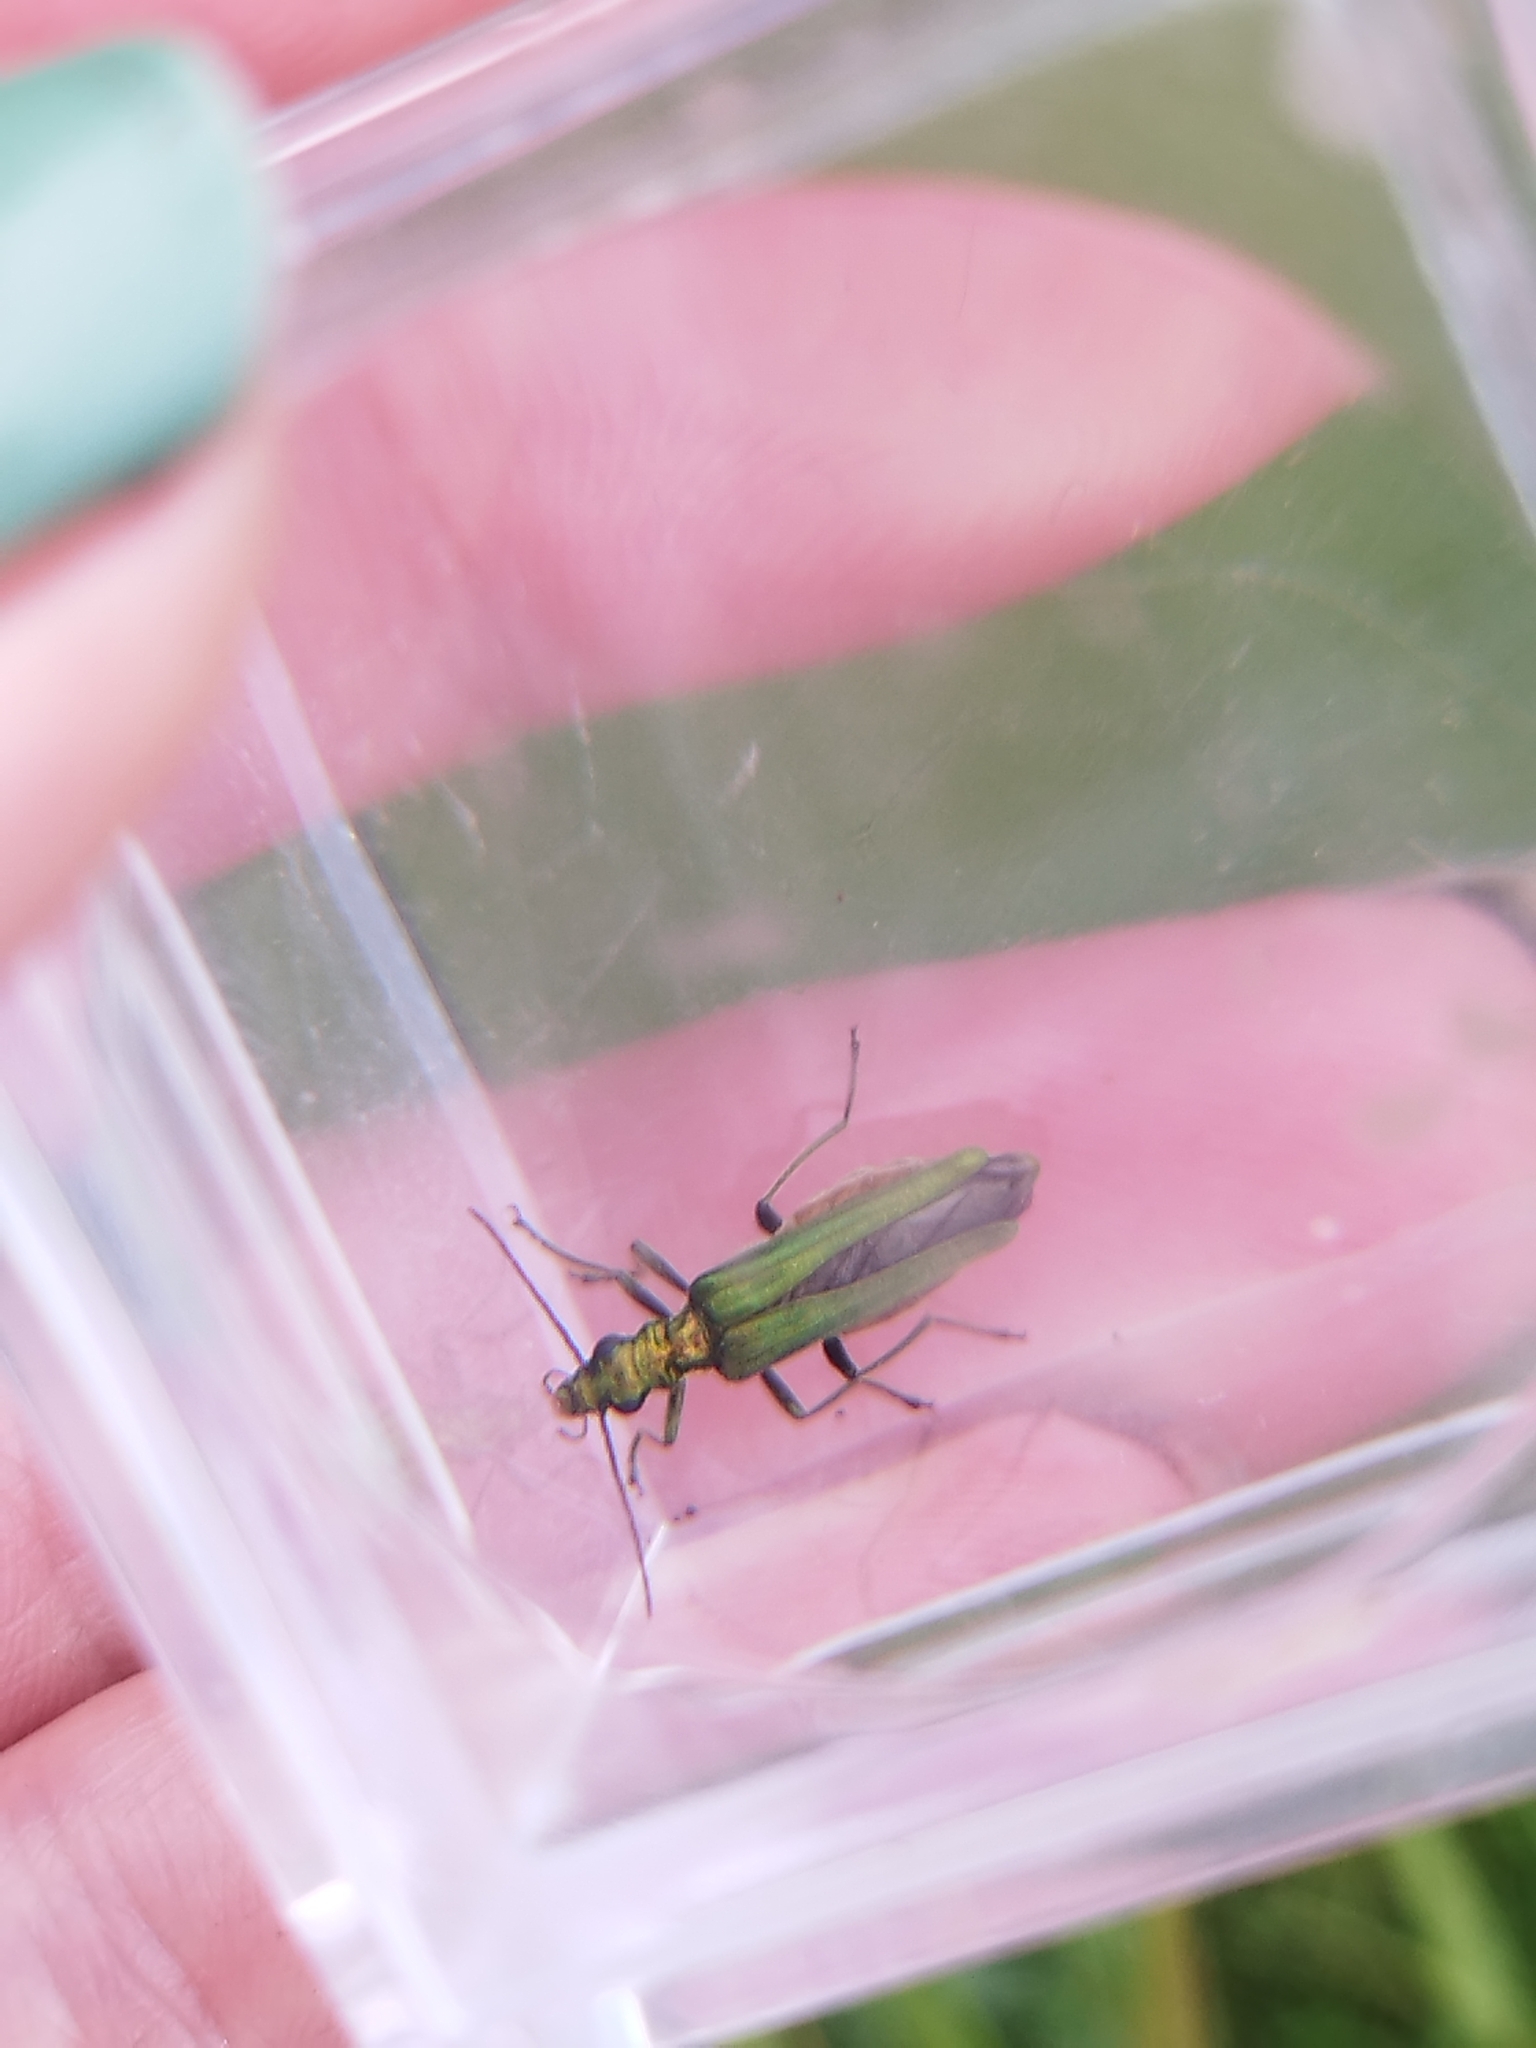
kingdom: Animalia
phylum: Arthropoda
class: Insecta
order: Coleoptera
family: Oedemeridae
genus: Oedemera
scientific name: Oedemera nobilis
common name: Swollen-thighed beetle
